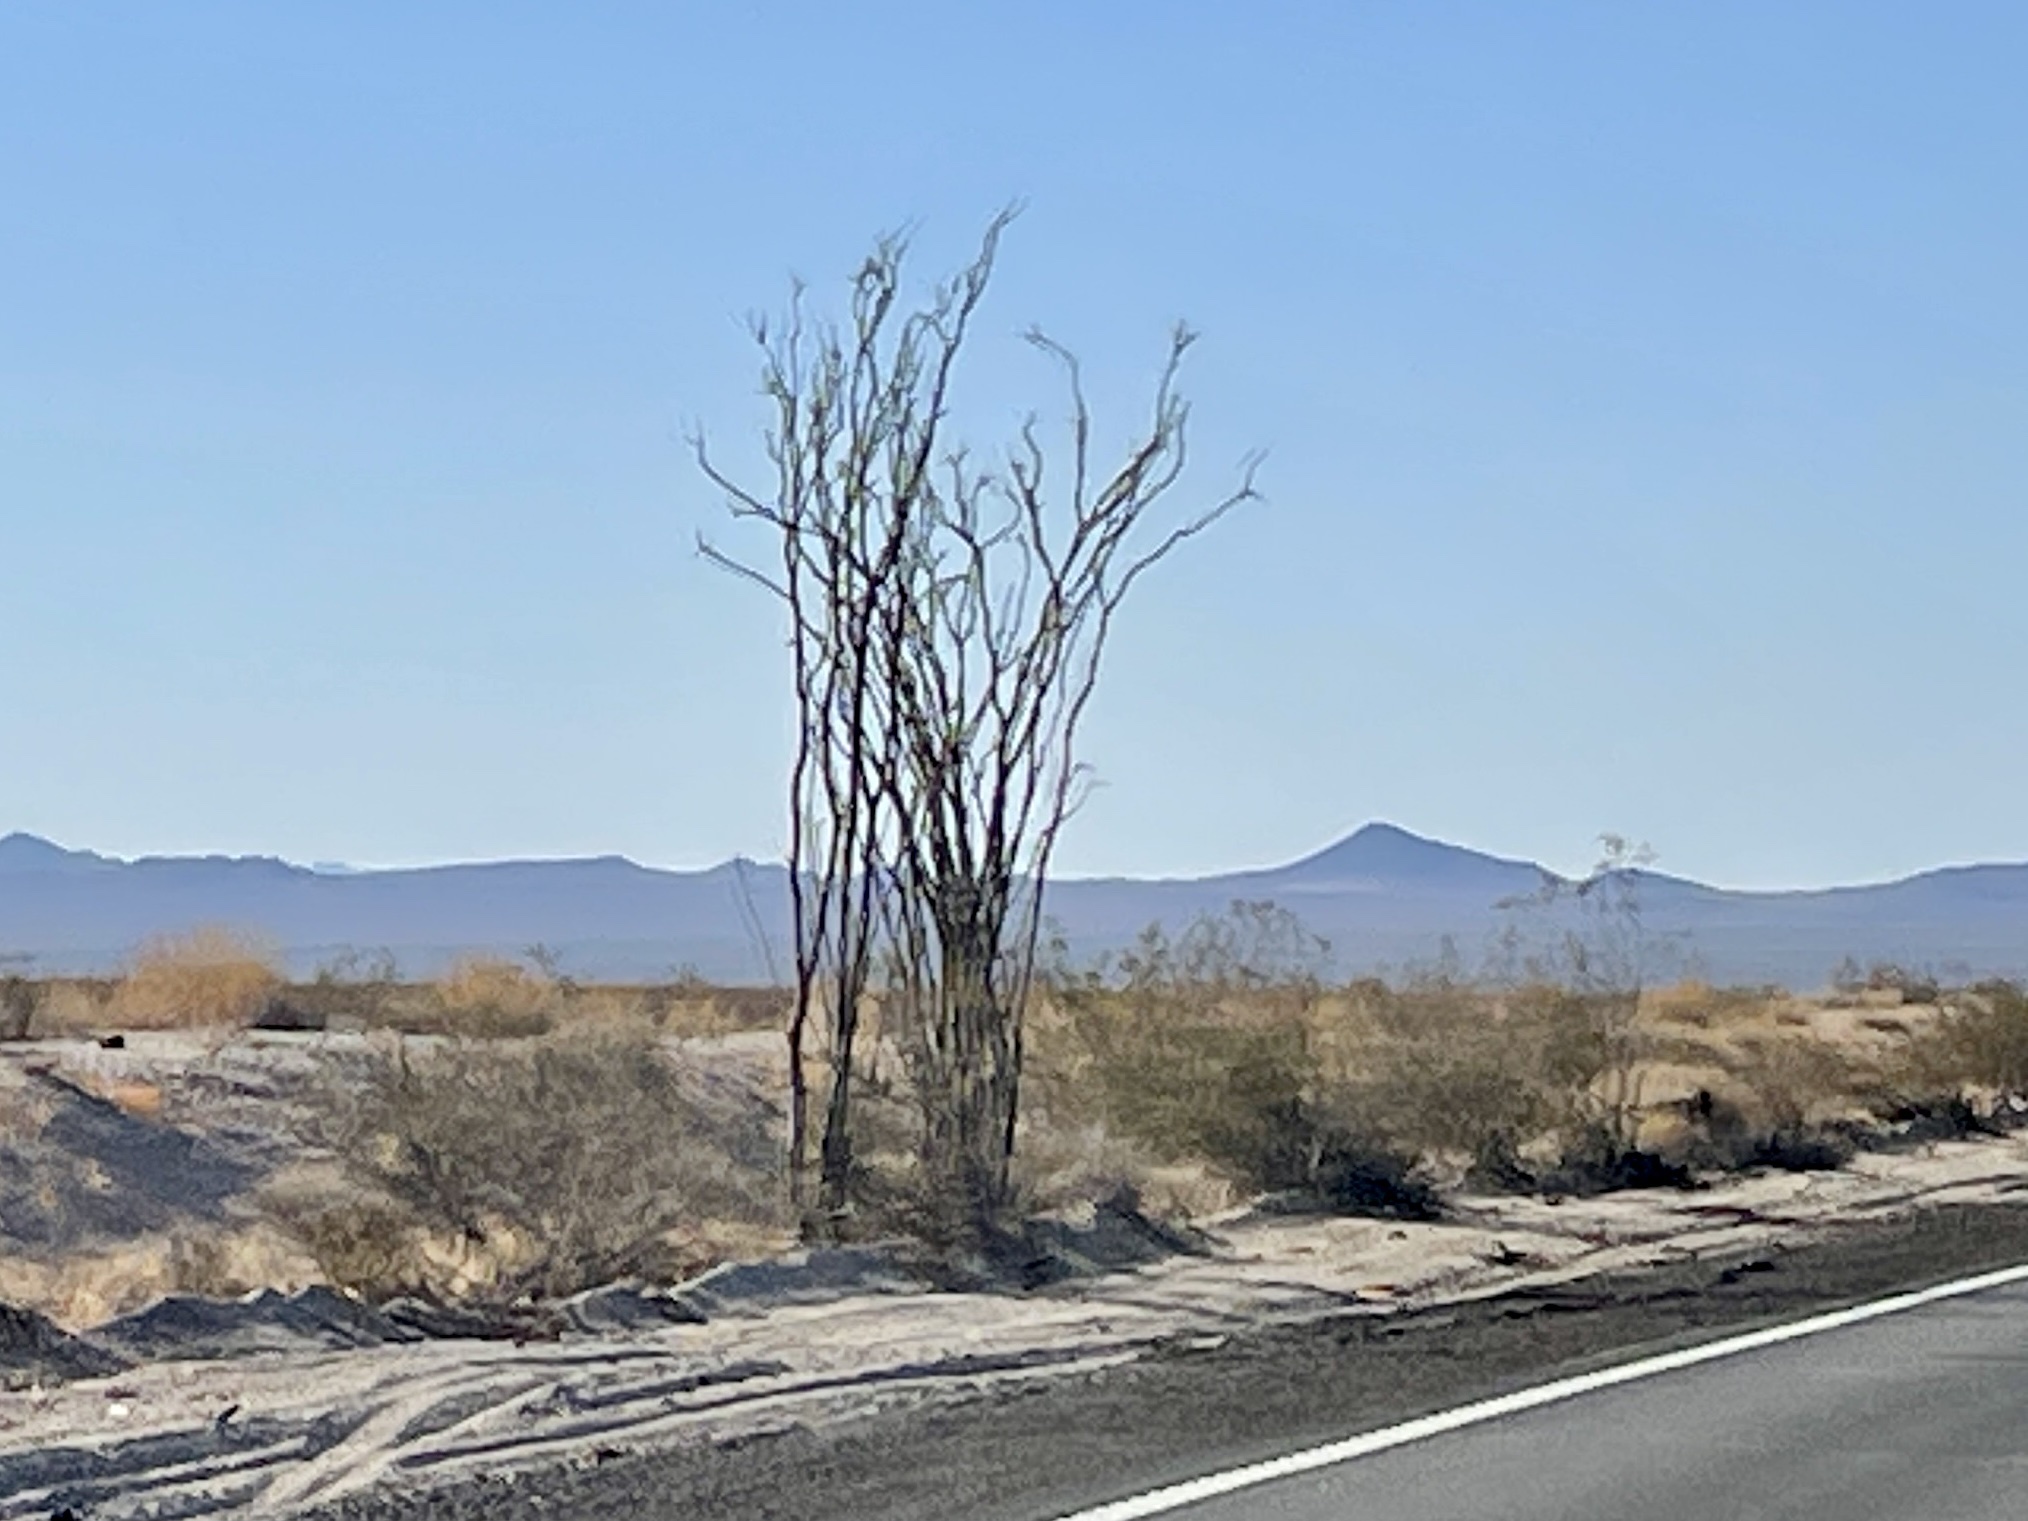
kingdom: Plantae
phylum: Tracheophyta
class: Magnoliopsida
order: Ericales
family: Fouquieriaceae
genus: Fouquieria
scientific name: Fouquieria splendens
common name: Vine-cactus
